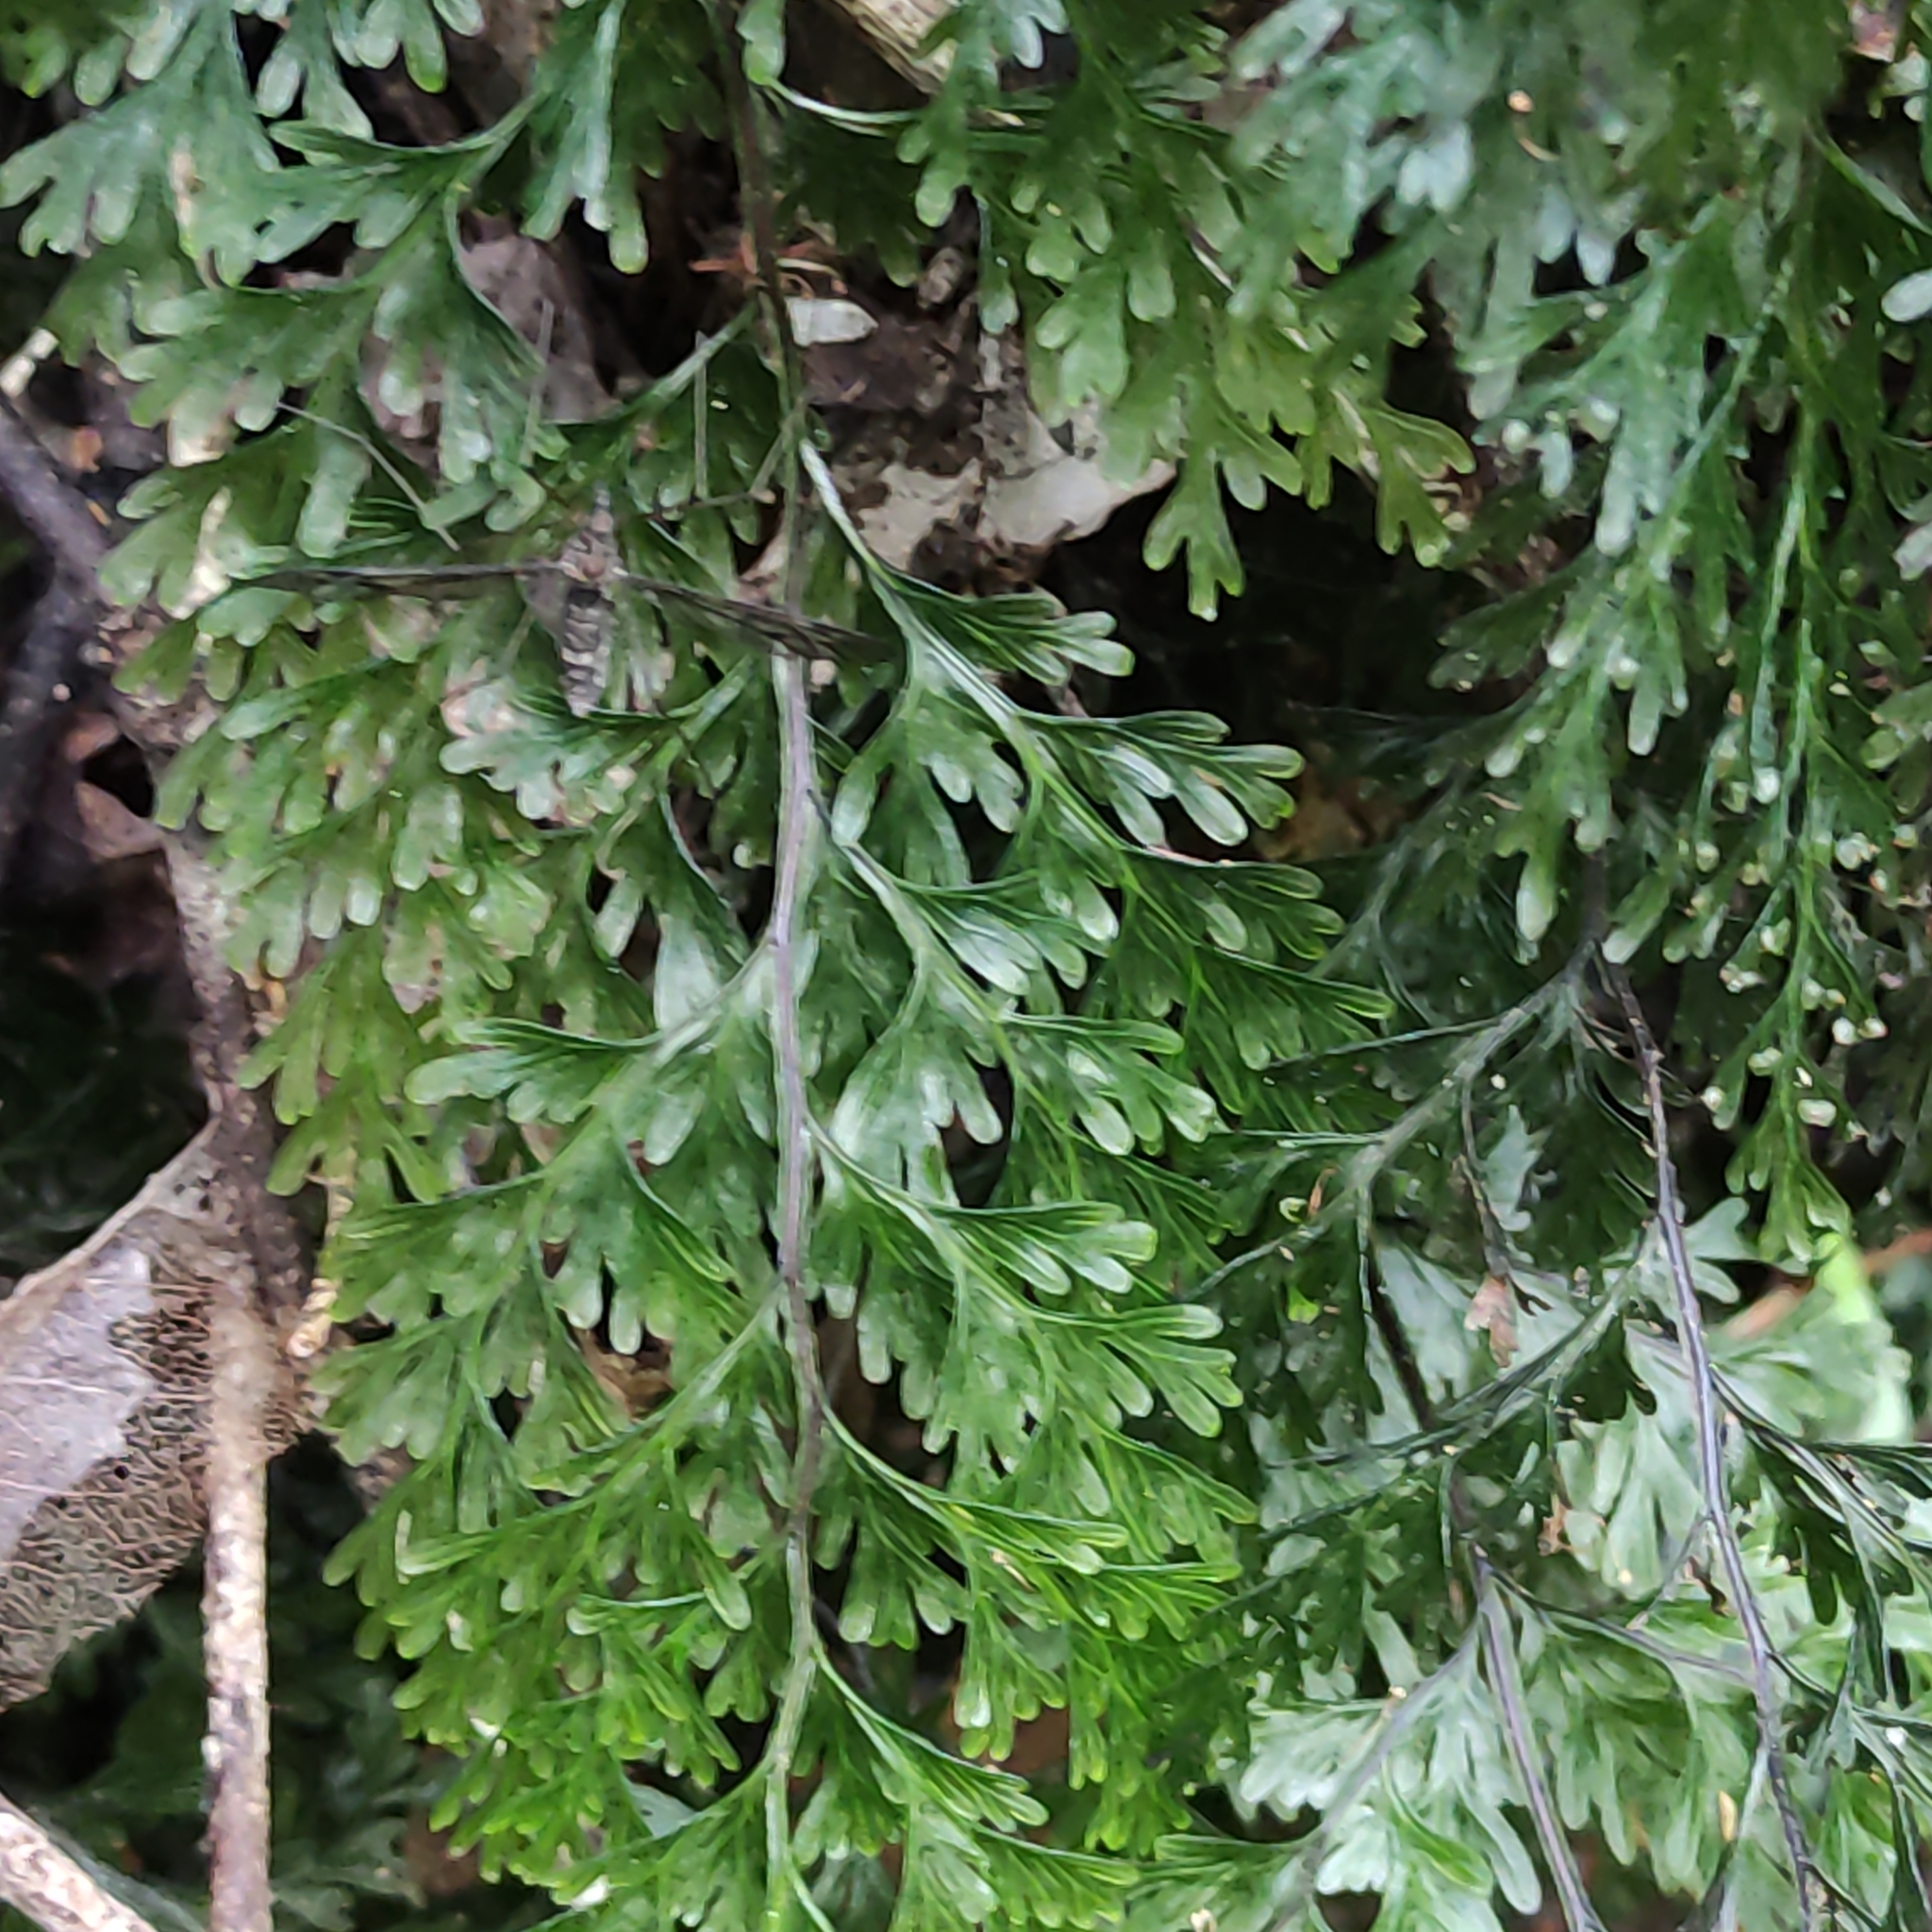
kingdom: Plantae
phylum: Tracheophyta
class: Polypodiopsida
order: Hymenophyllales
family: Hymenophyllaceae
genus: Hymenophyllum
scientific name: Hymenophyllum demissum
